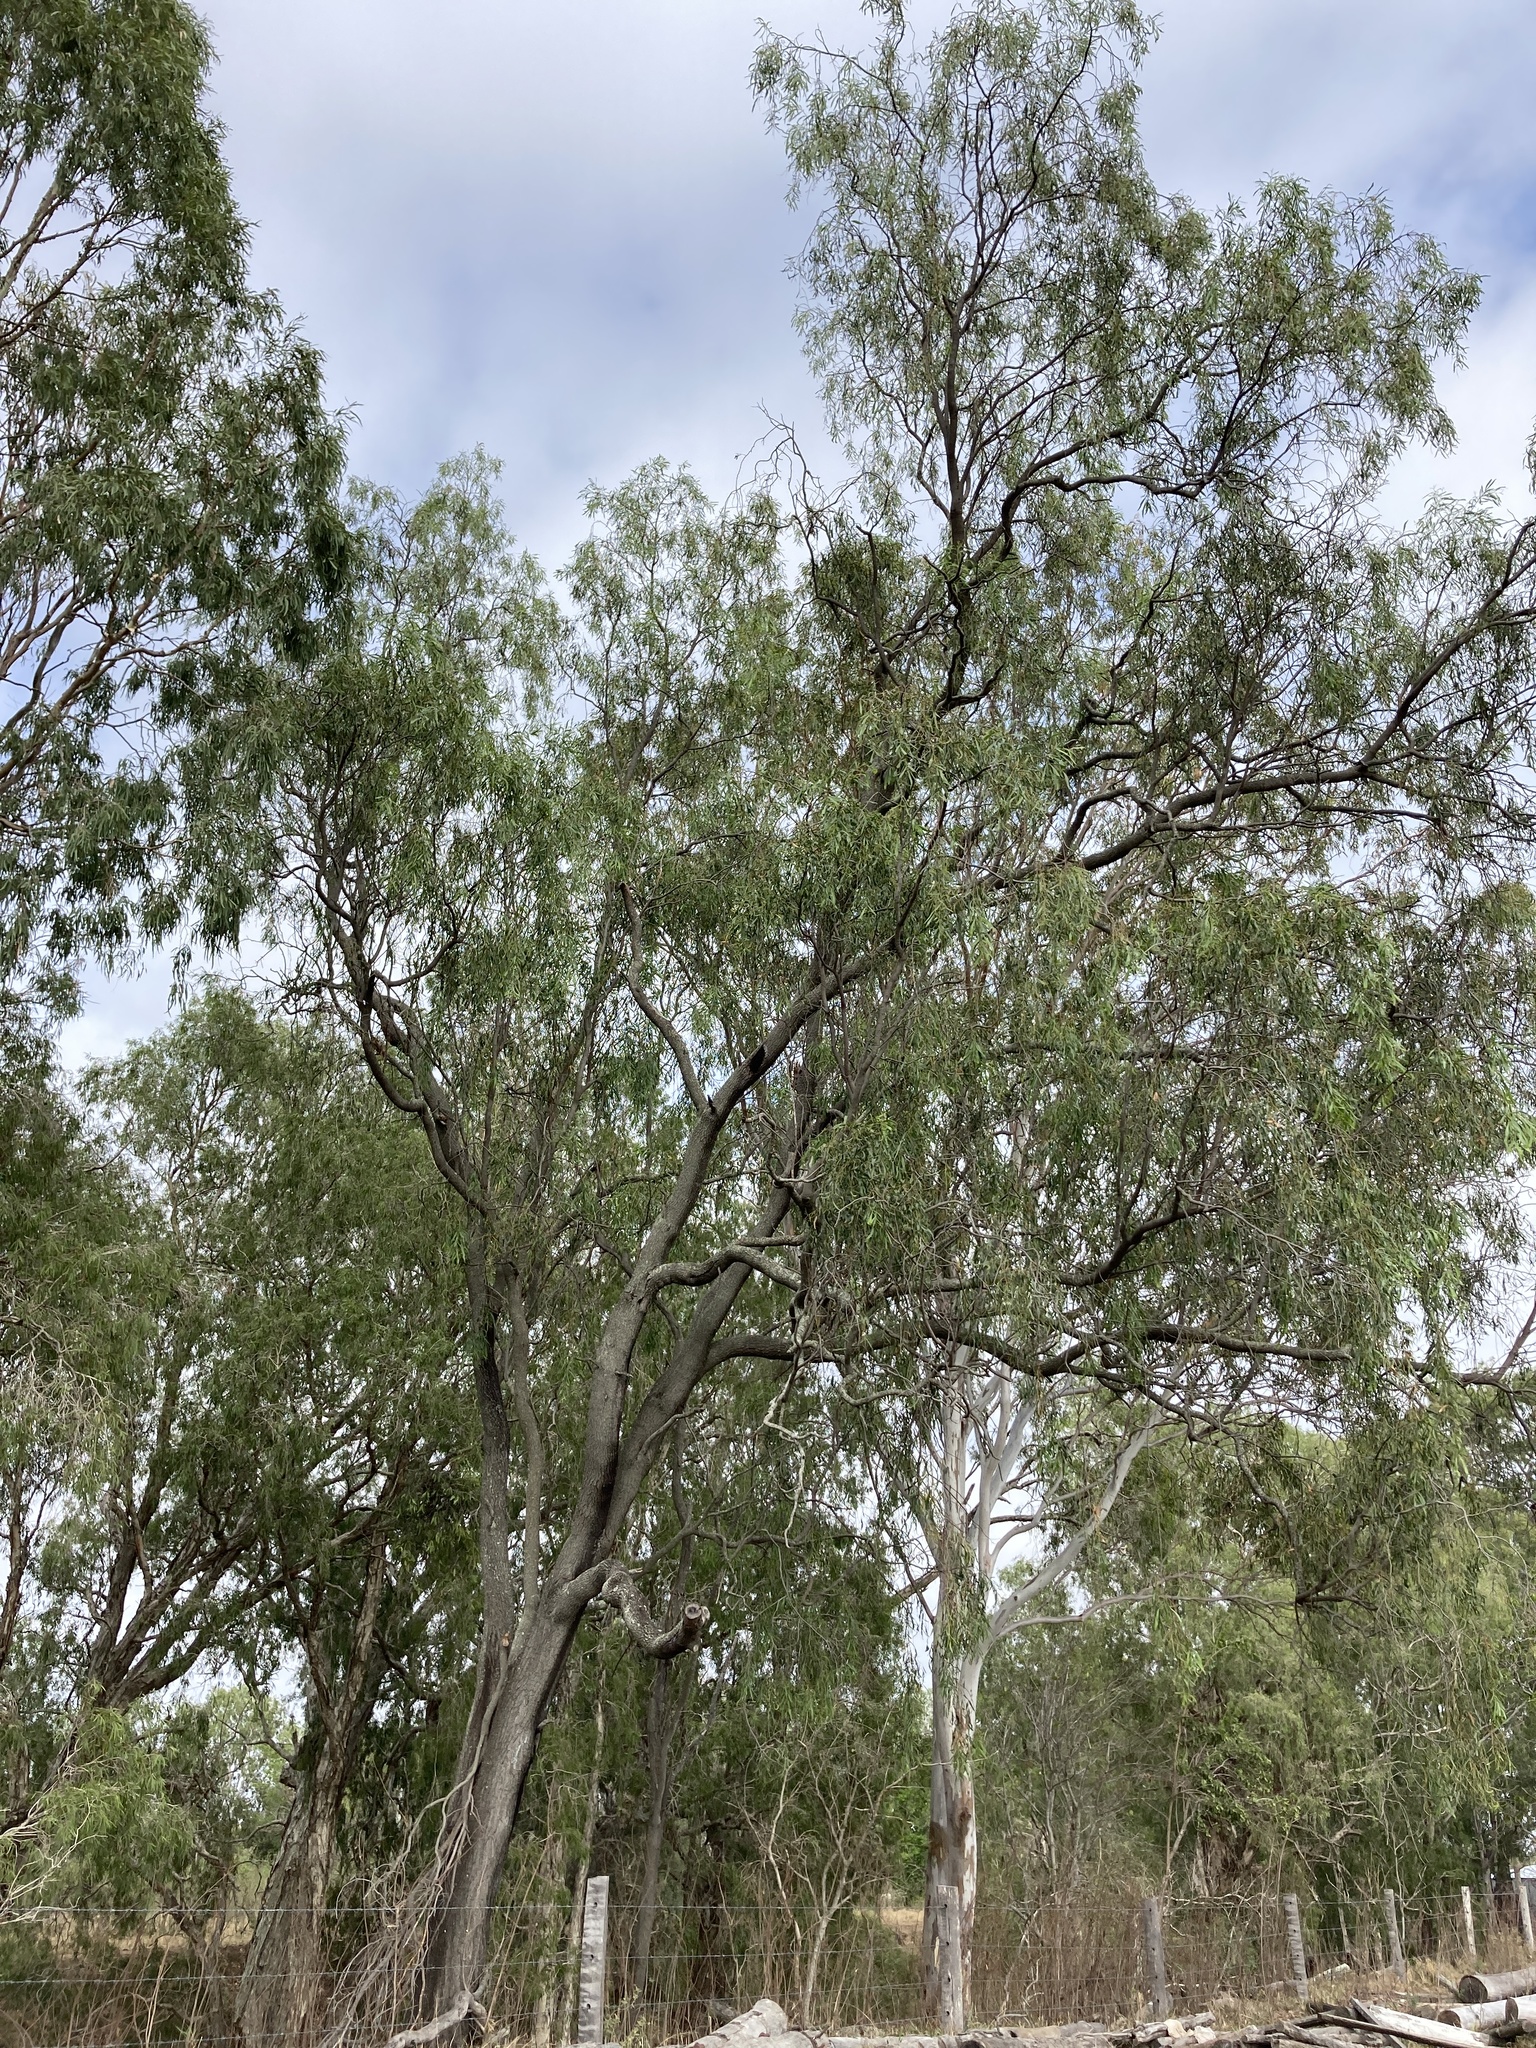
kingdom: Plantae
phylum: Tracheophyta
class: Magnoliopsida
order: Fabales
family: Fabaceae
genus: Acacia
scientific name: Acacia salicina
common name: Broughton willow wattle
